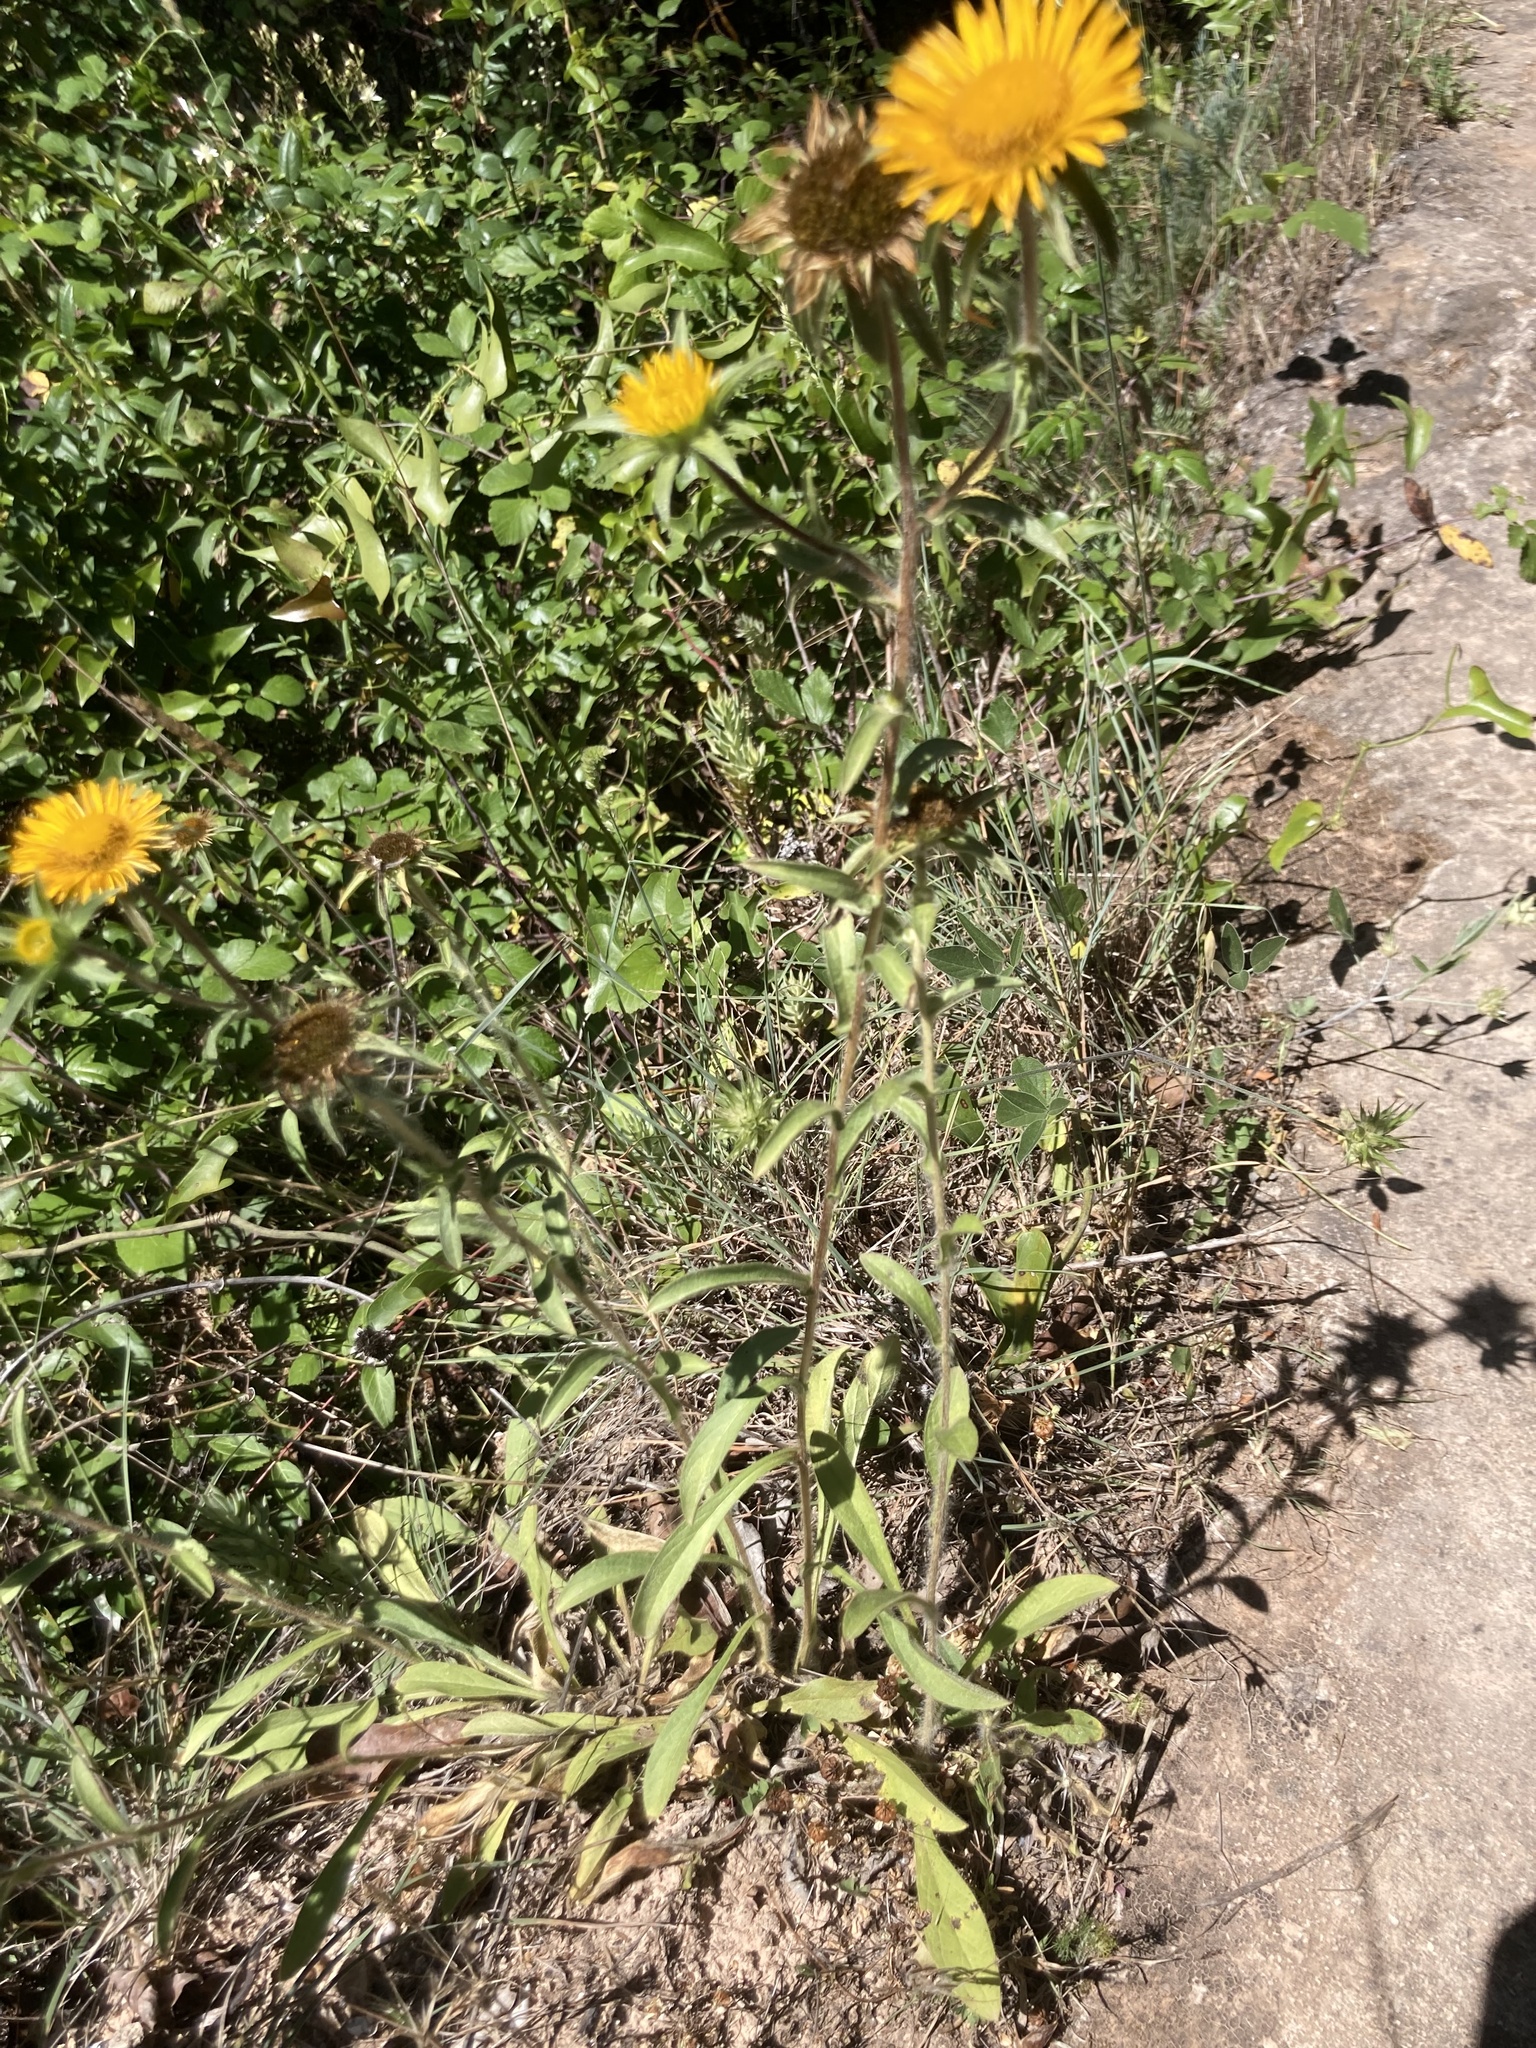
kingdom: Plantae
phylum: Tracheophyta
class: Magnoliopsida
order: Asterales
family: Asteraceae
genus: Pallenis
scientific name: Pallenis spinosa
